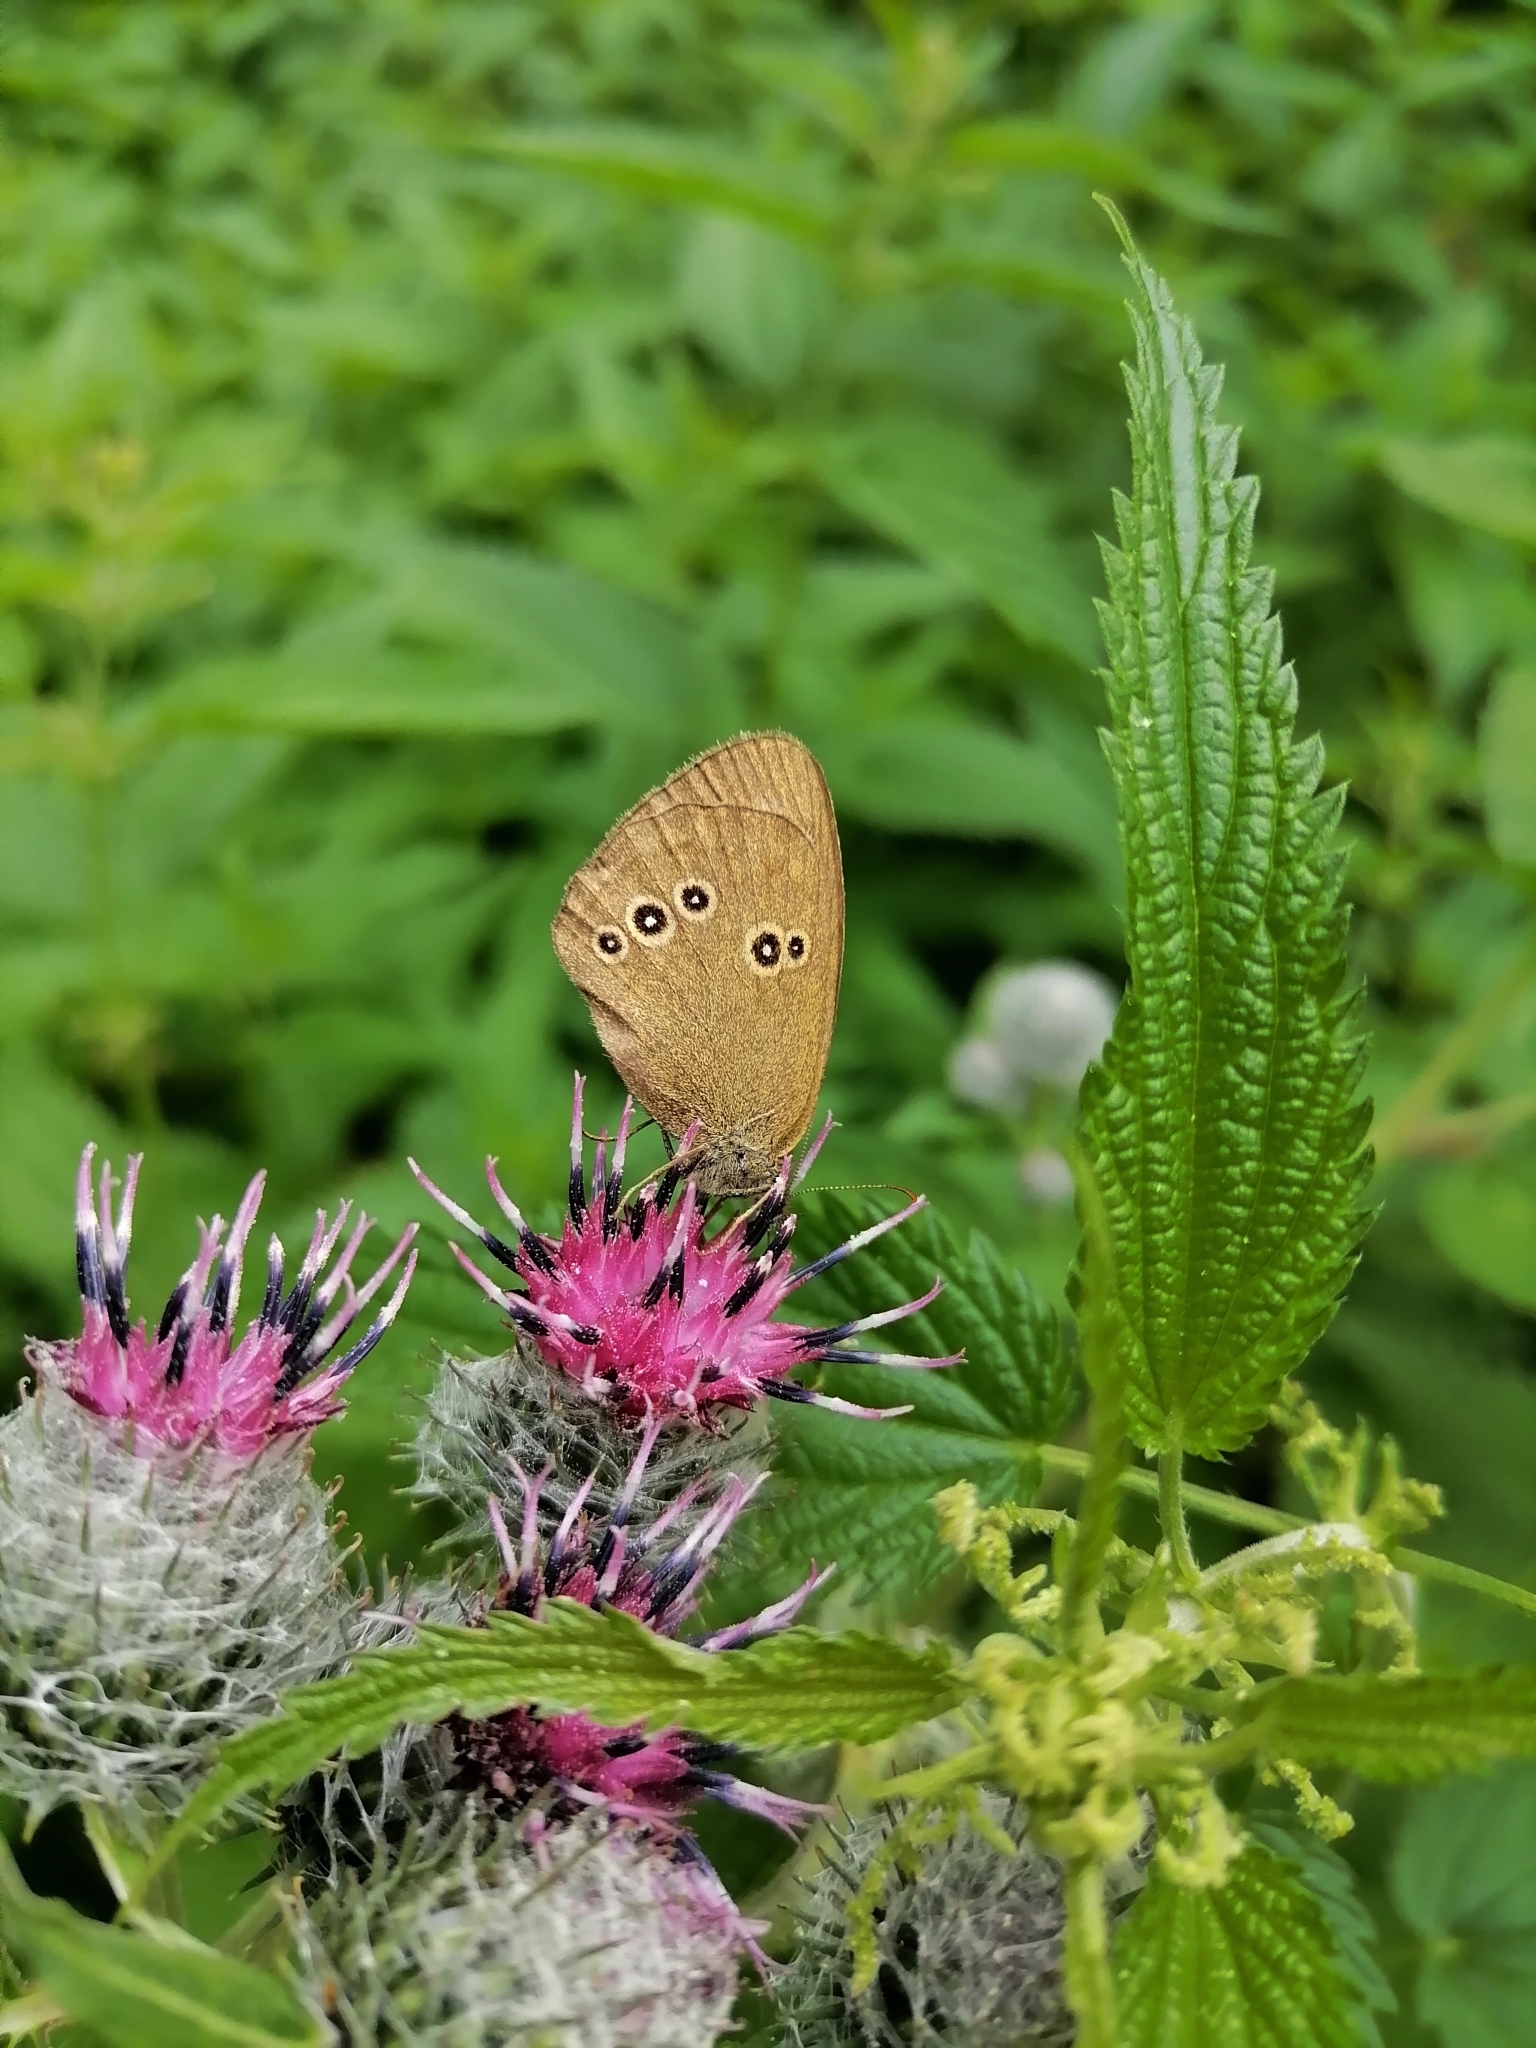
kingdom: Animalia
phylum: Arthropoda
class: Insecta
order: Lepidoptera
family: Nymphalidae
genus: Aphantopus
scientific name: Aphantopus hyperantus
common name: Ringlet
